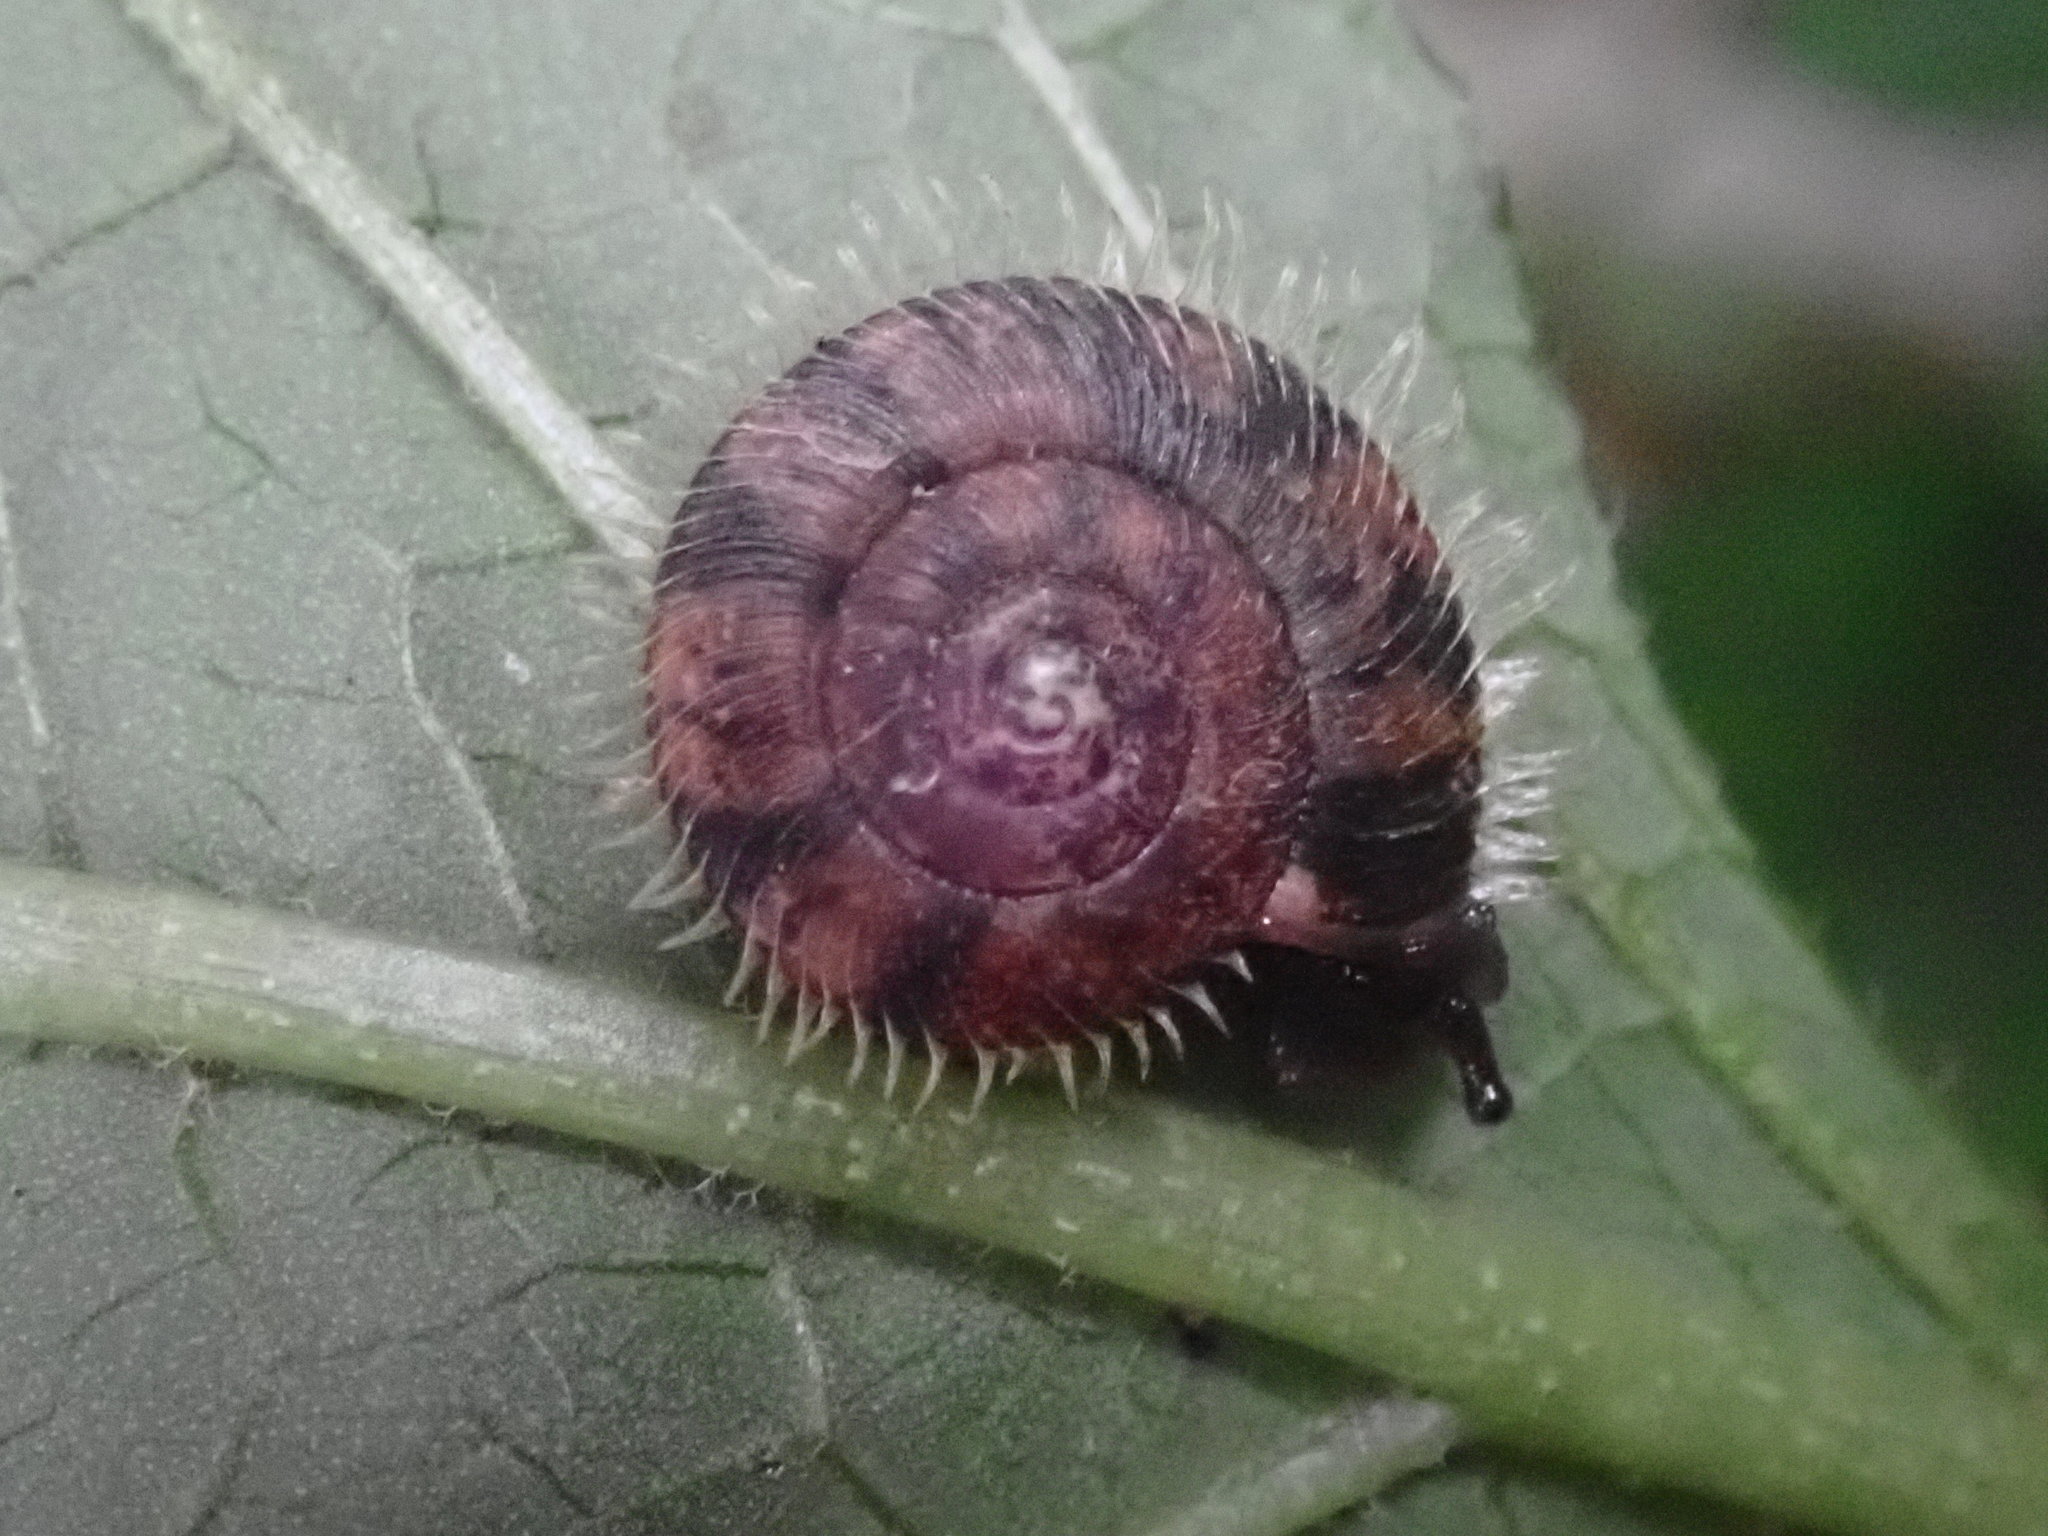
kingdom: Animalia
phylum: Mollusca
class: Gastropoda
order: Stylommatophora
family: Camaenidae
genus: Plectotropis
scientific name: Plectotropis mackensii
